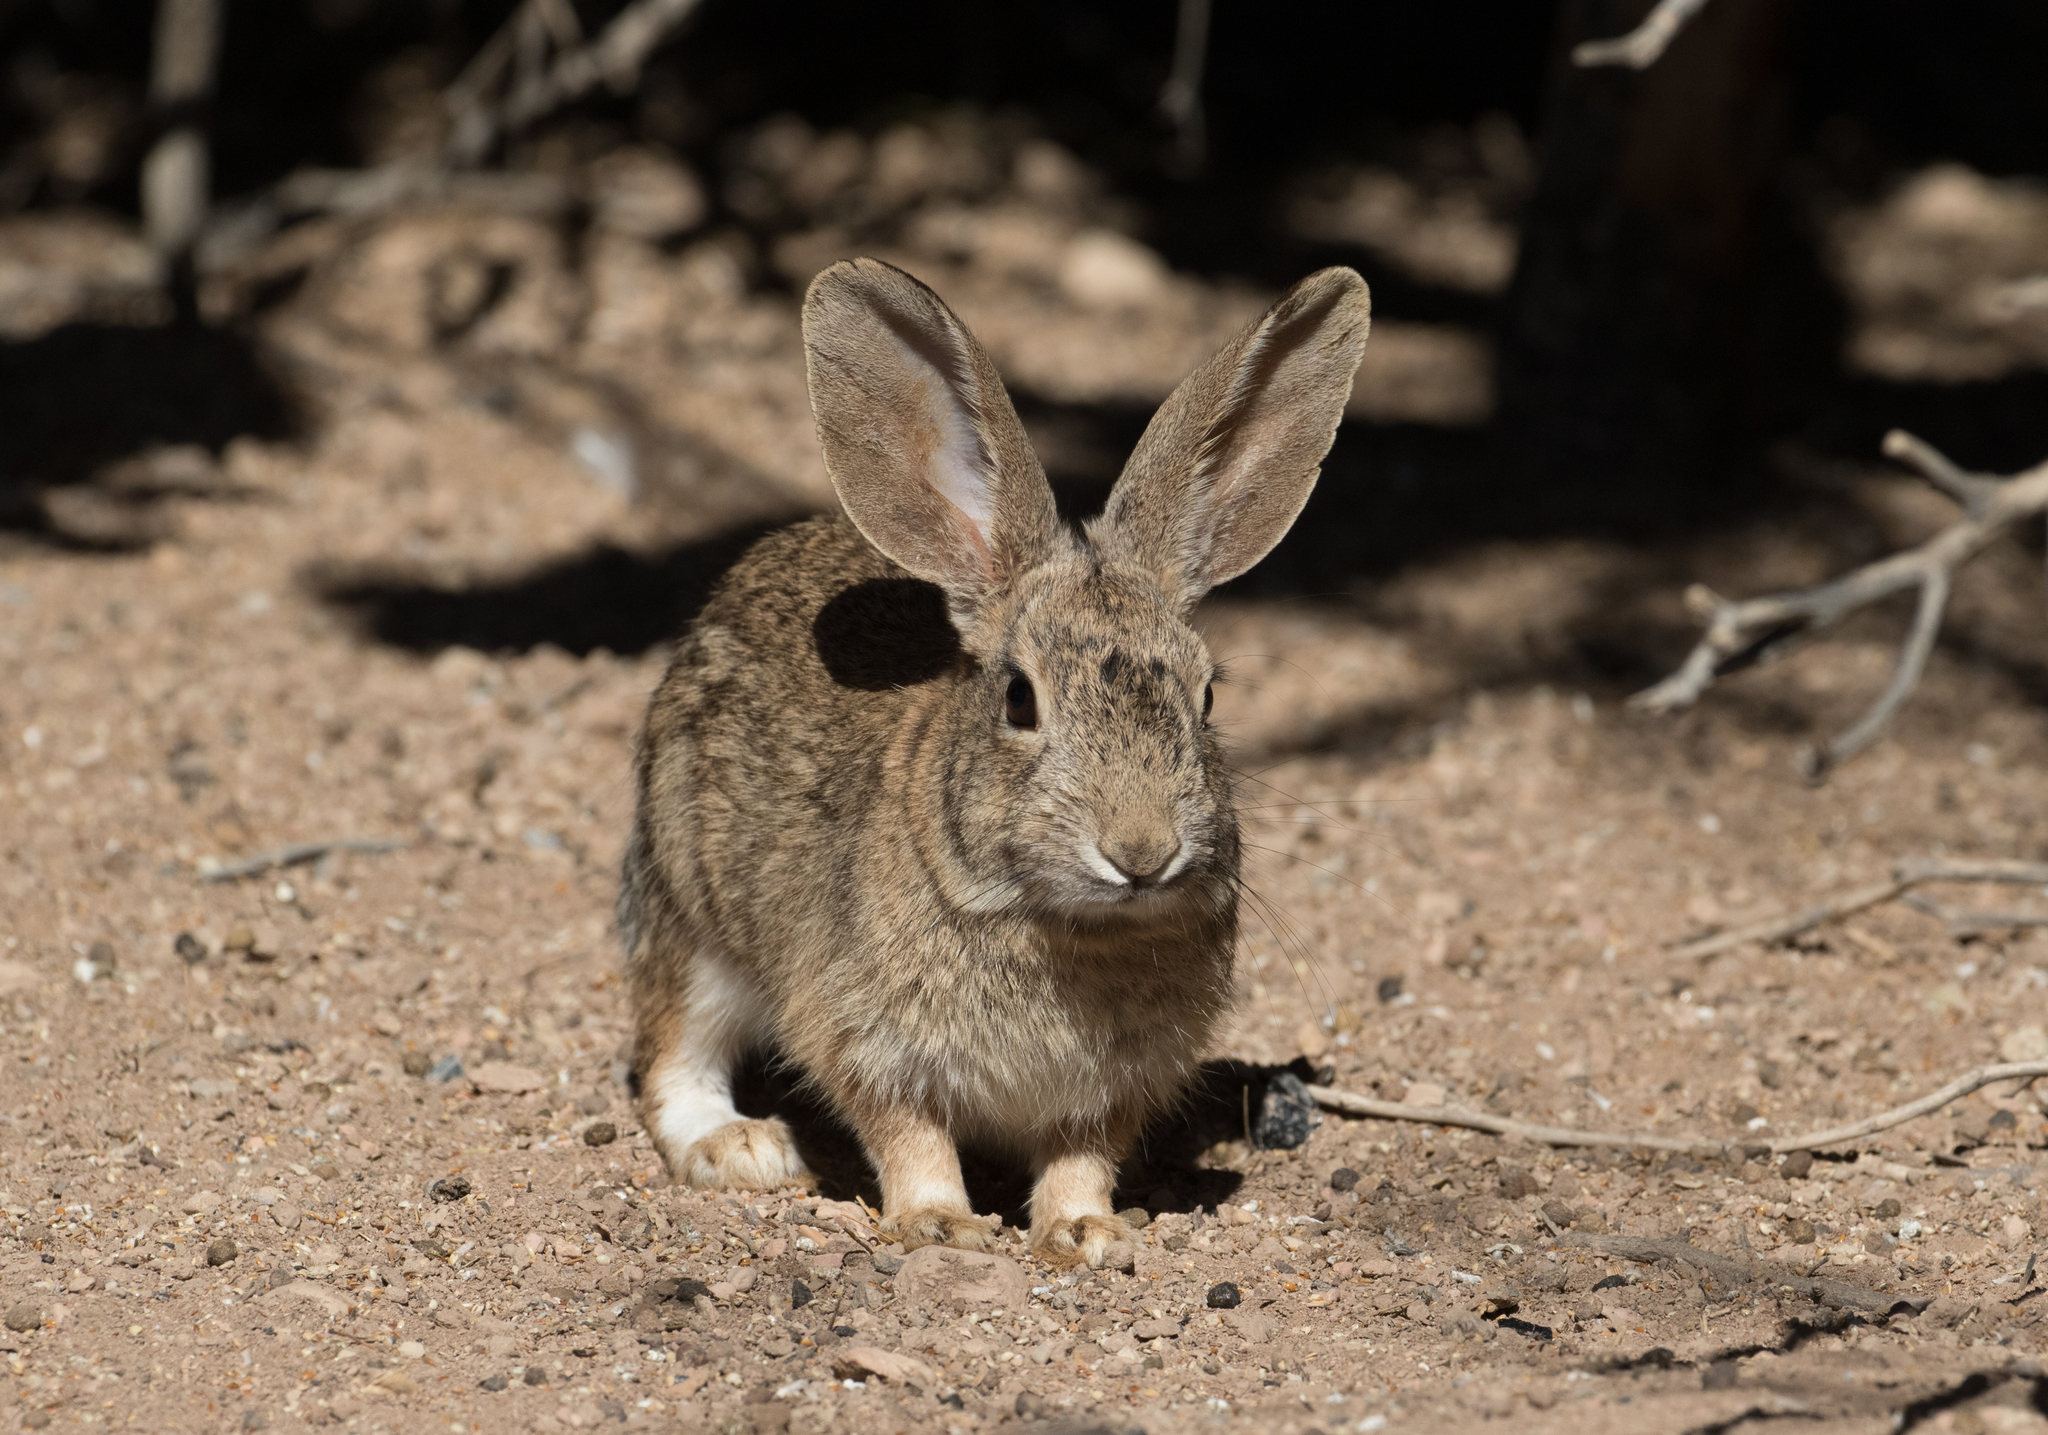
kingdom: Animalia
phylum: Chordata
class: Mammalia
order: Lagomorpha
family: Leporidae
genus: Sylvilagus
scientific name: Sylvilagus audubonii
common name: Desert cottontail
